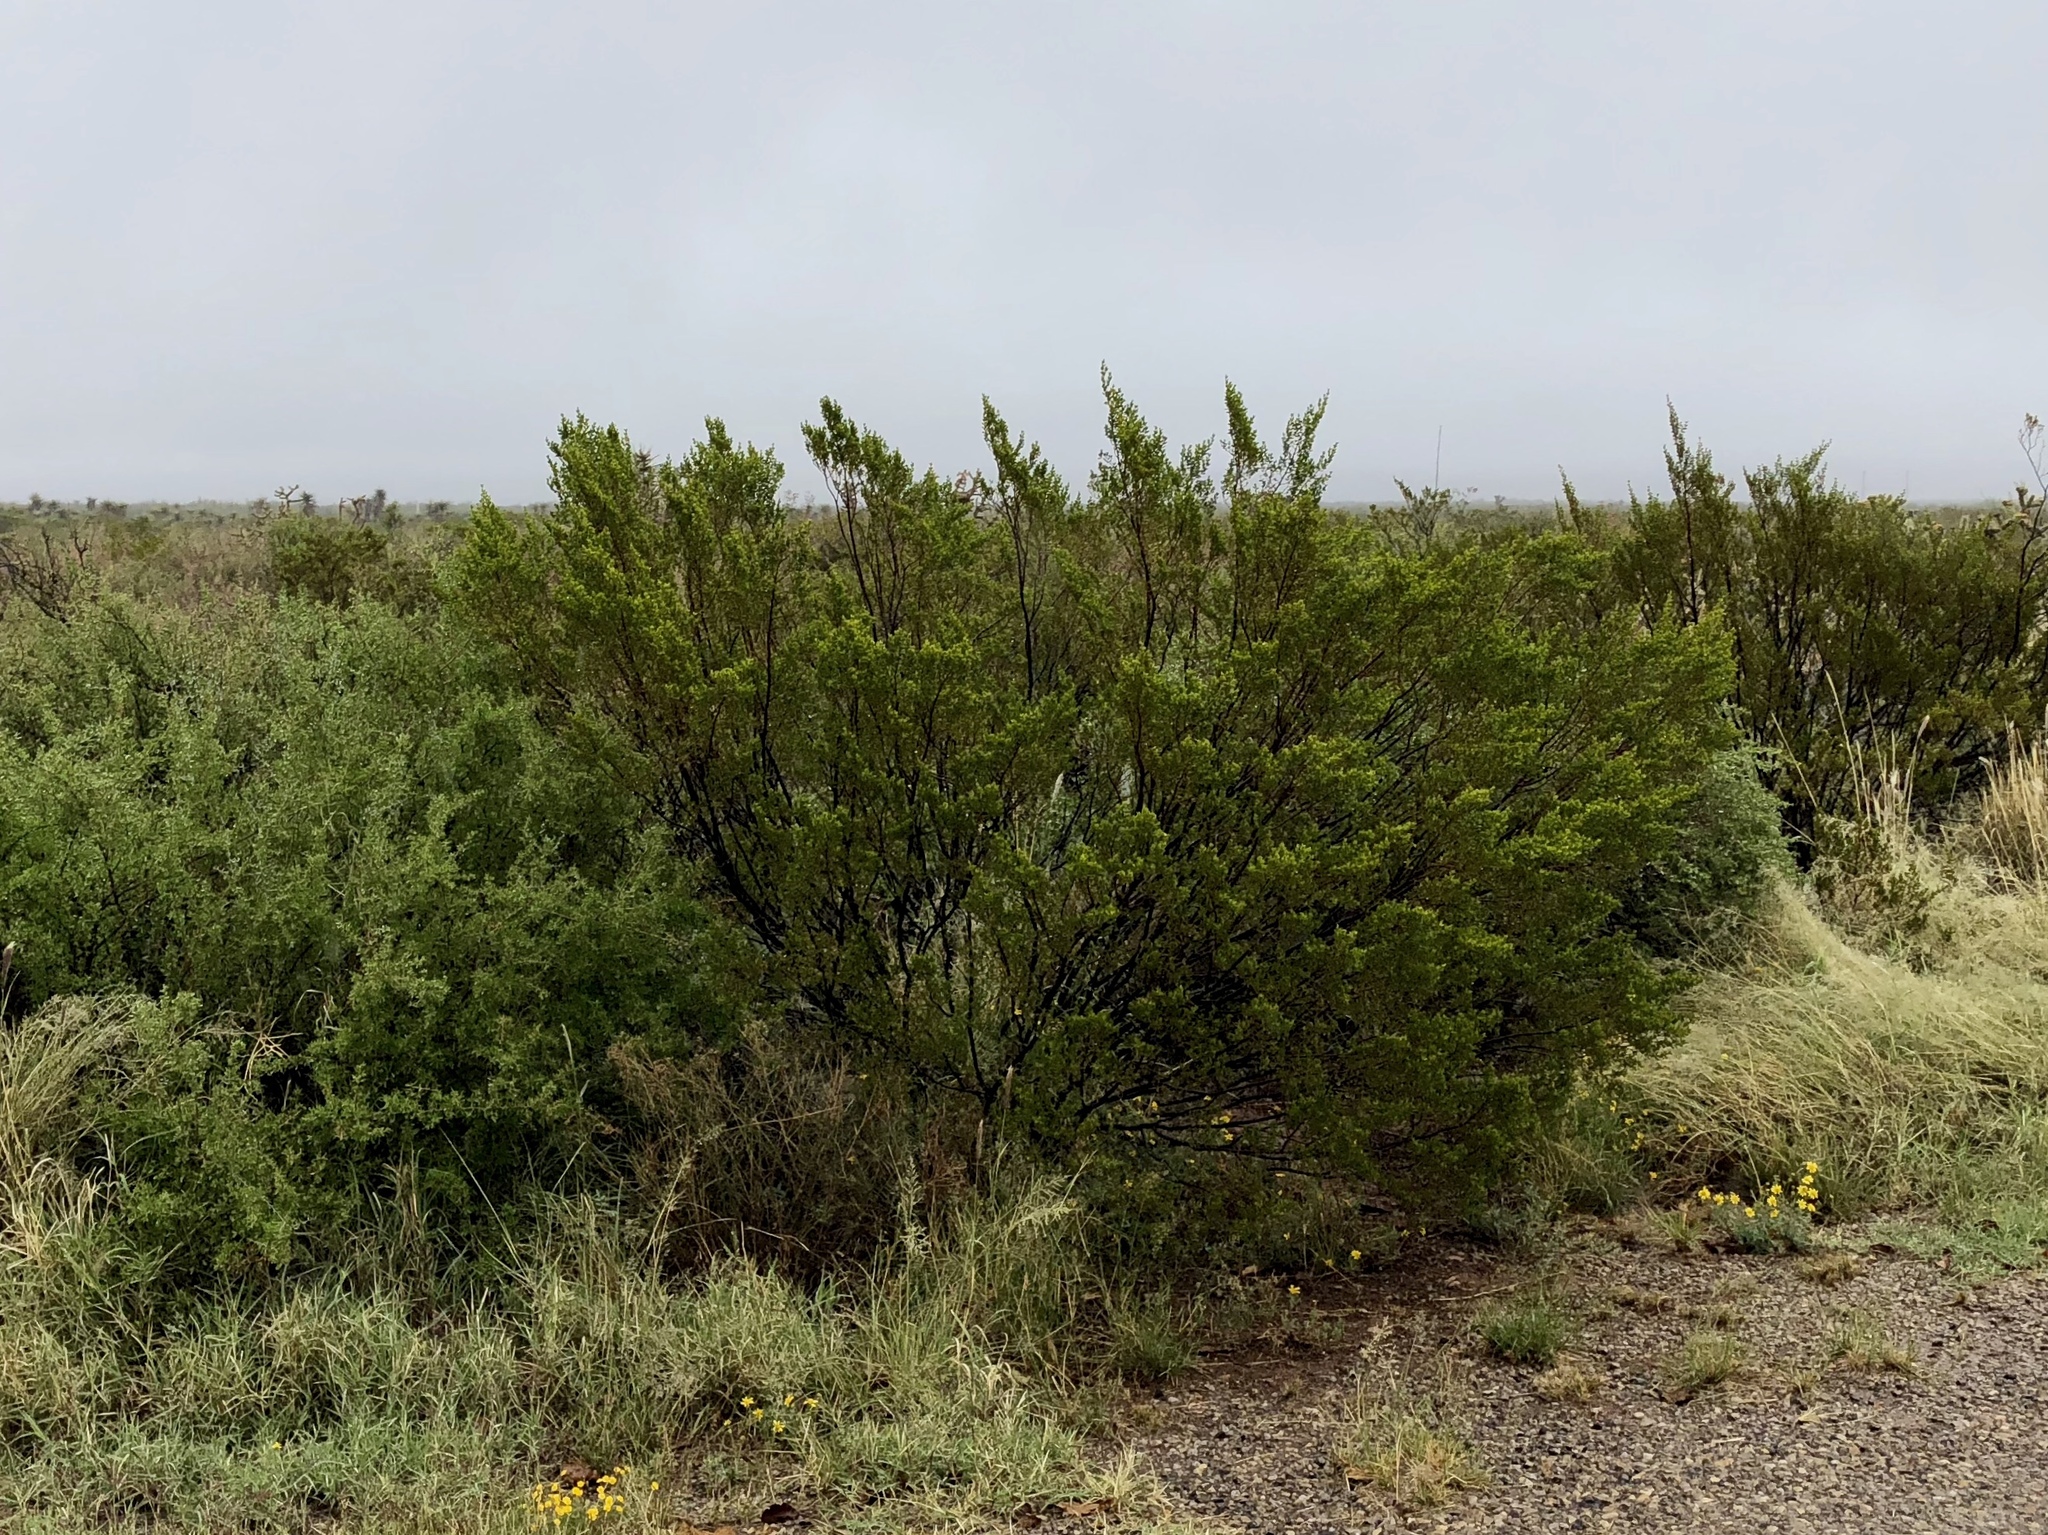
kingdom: Plantae
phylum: Tracheophyta
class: Magnoliopsida
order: Zygophyllales
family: Zygophyllaceae
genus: Larrea
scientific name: Larrea tridentata
